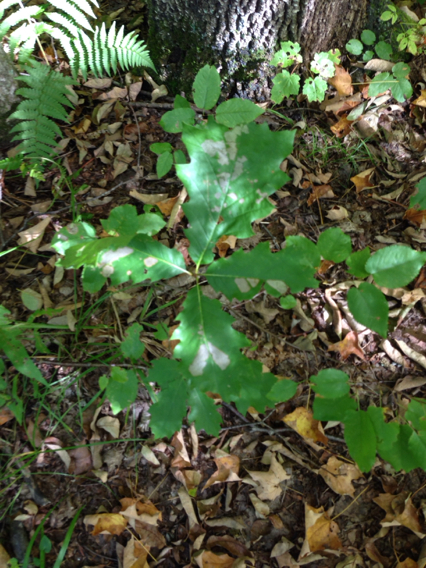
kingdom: Plantae
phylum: Tracheophyta
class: Magnoliopsida
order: Fagales
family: Fagaceae
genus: Quercus
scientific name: Quercus rubra
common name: Red oak
